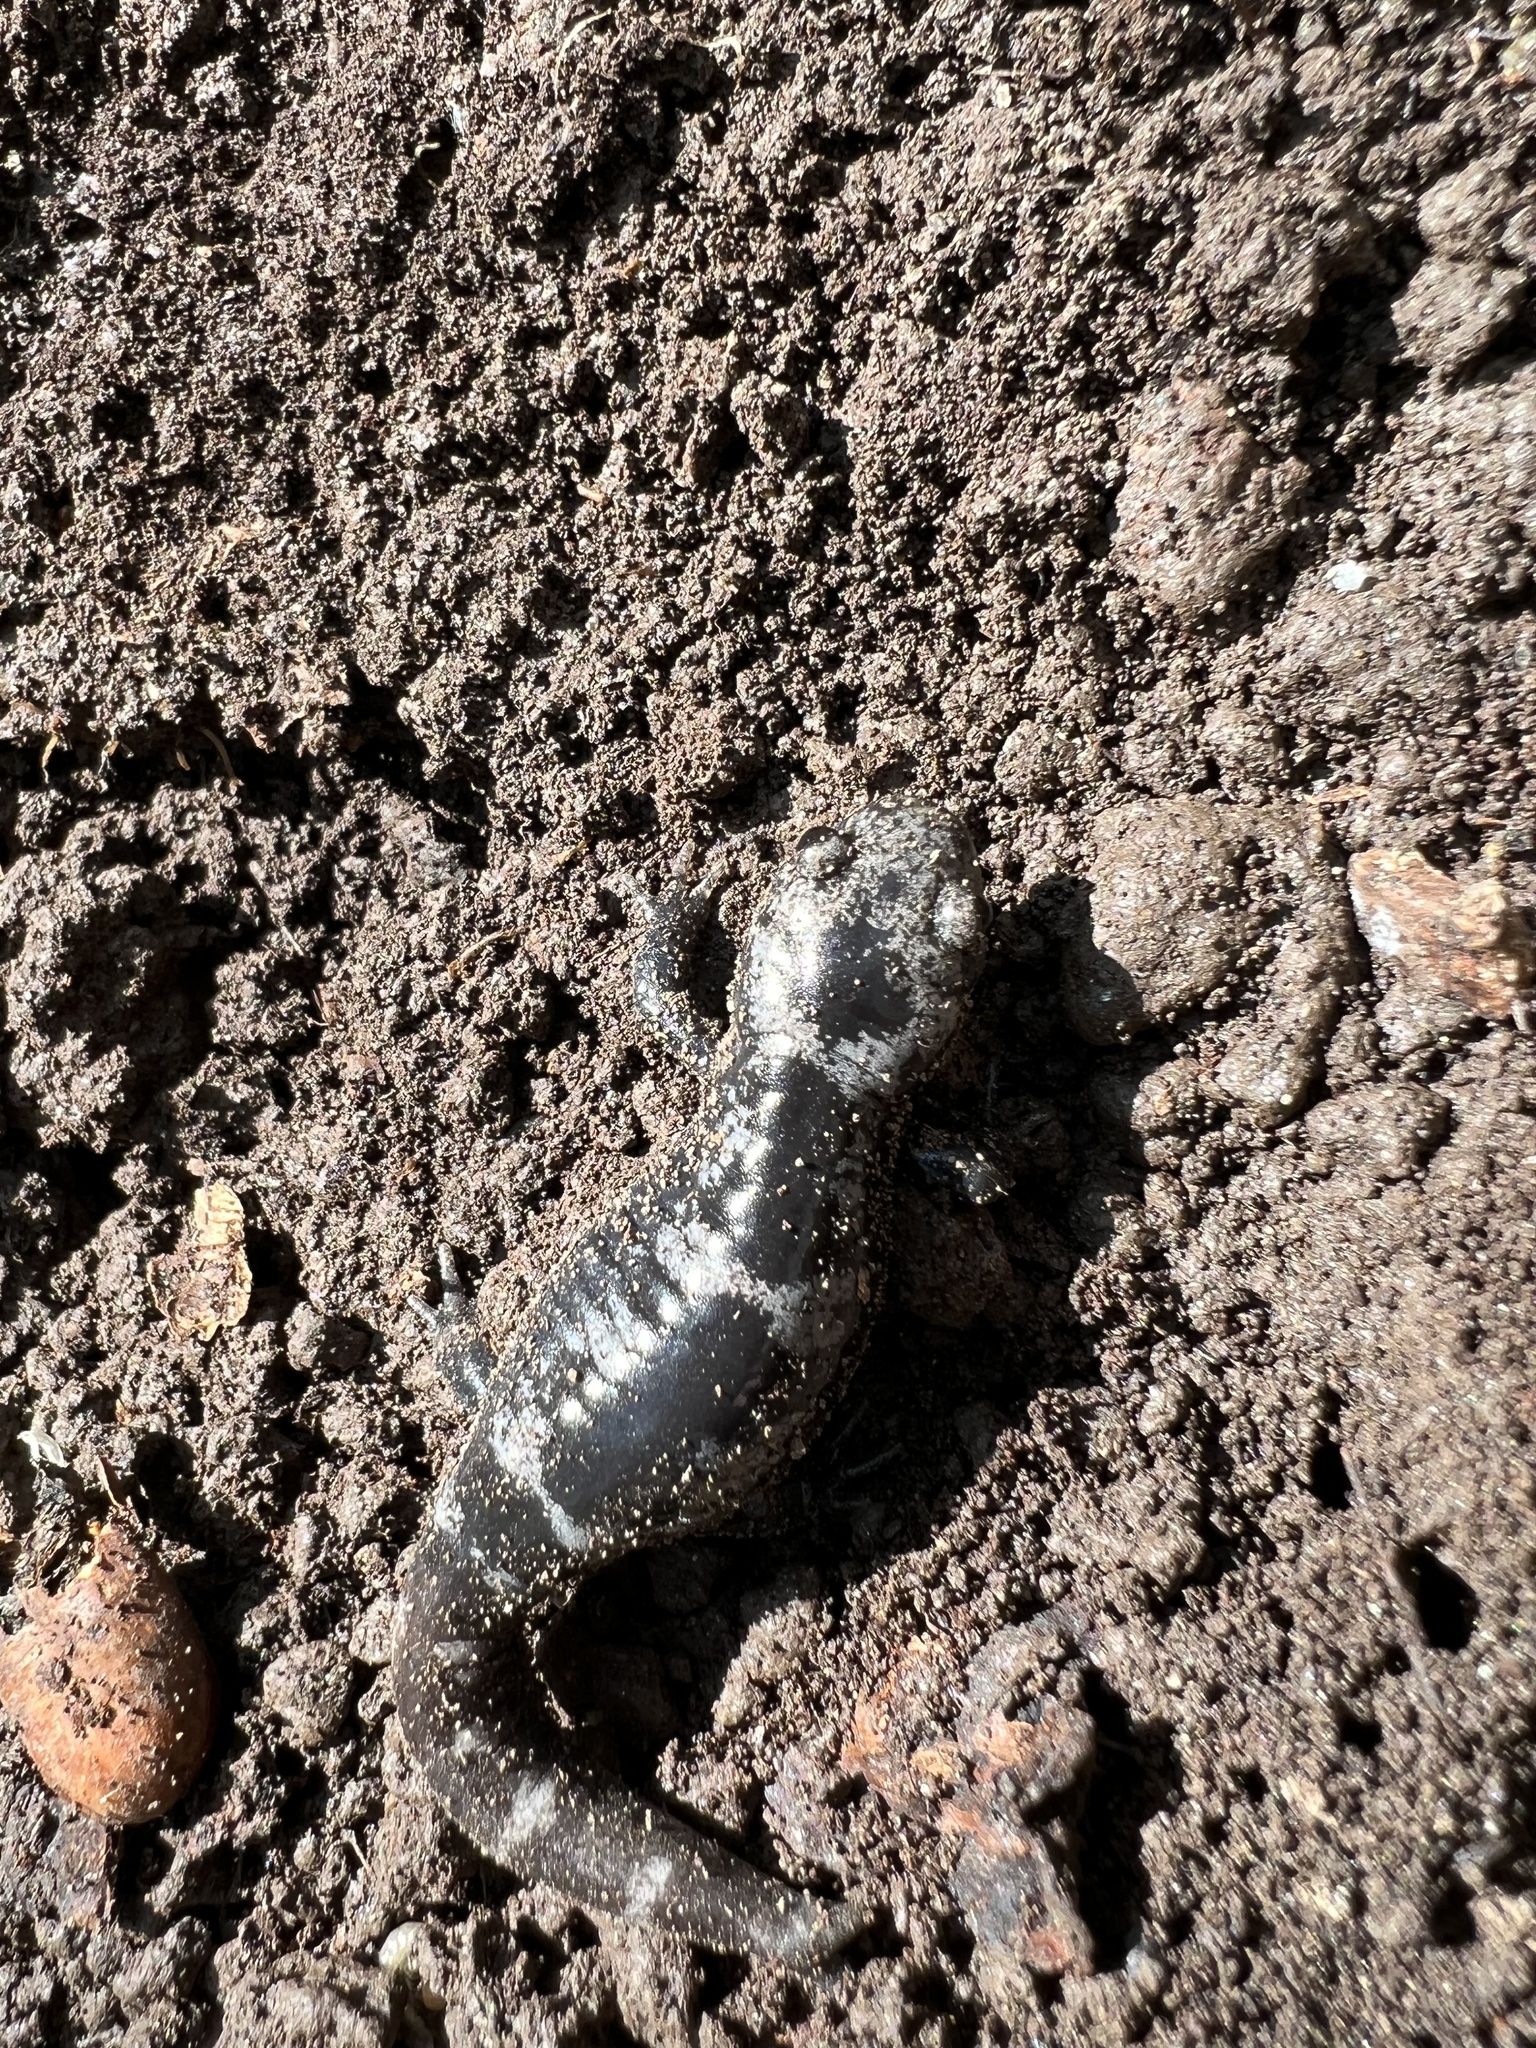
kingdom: Animalia
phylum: Chordata
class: Amphibia
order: Caudata
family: Ambystomatidae
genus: Ambystoma
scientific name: Ambystoma opacum
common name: Marbled salamander
